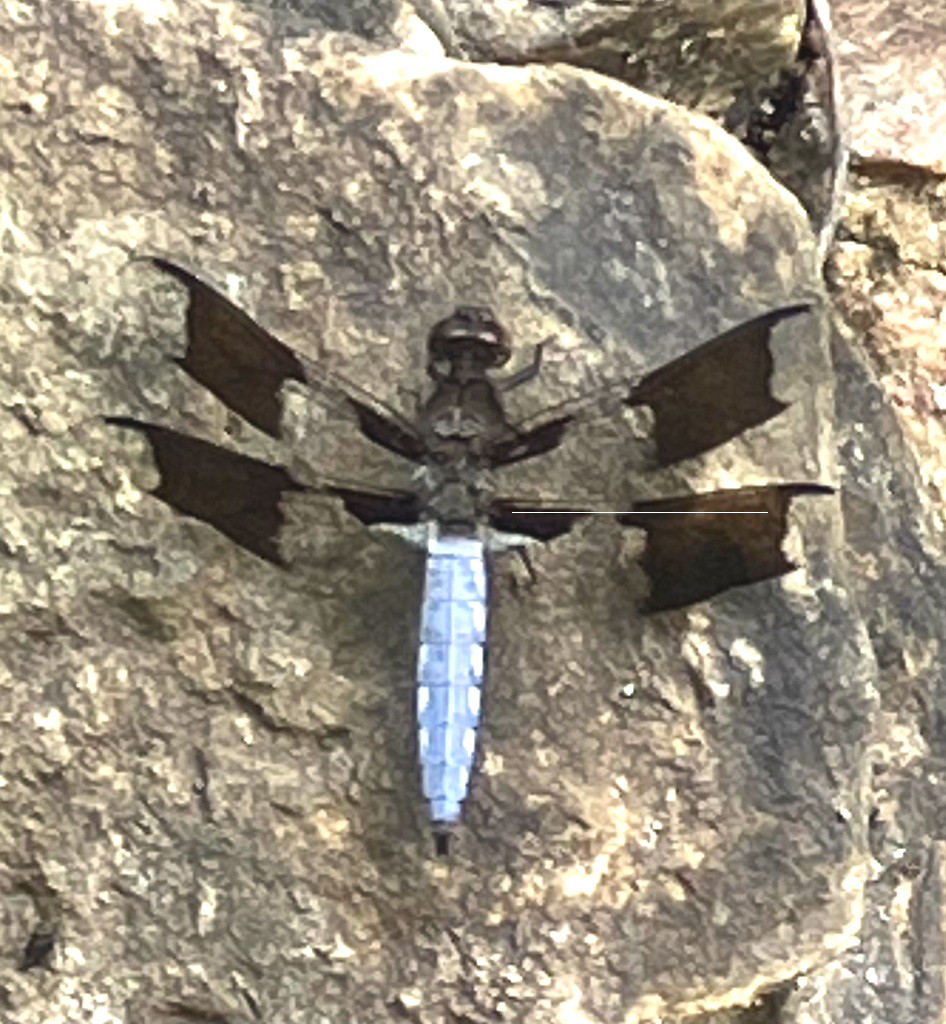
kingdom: Animalia
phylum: Arthropoda
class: Insecta
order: Odonata
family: Libellulidae
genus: Plathemis
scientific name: Plathemis lydia
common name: Common whitetail
